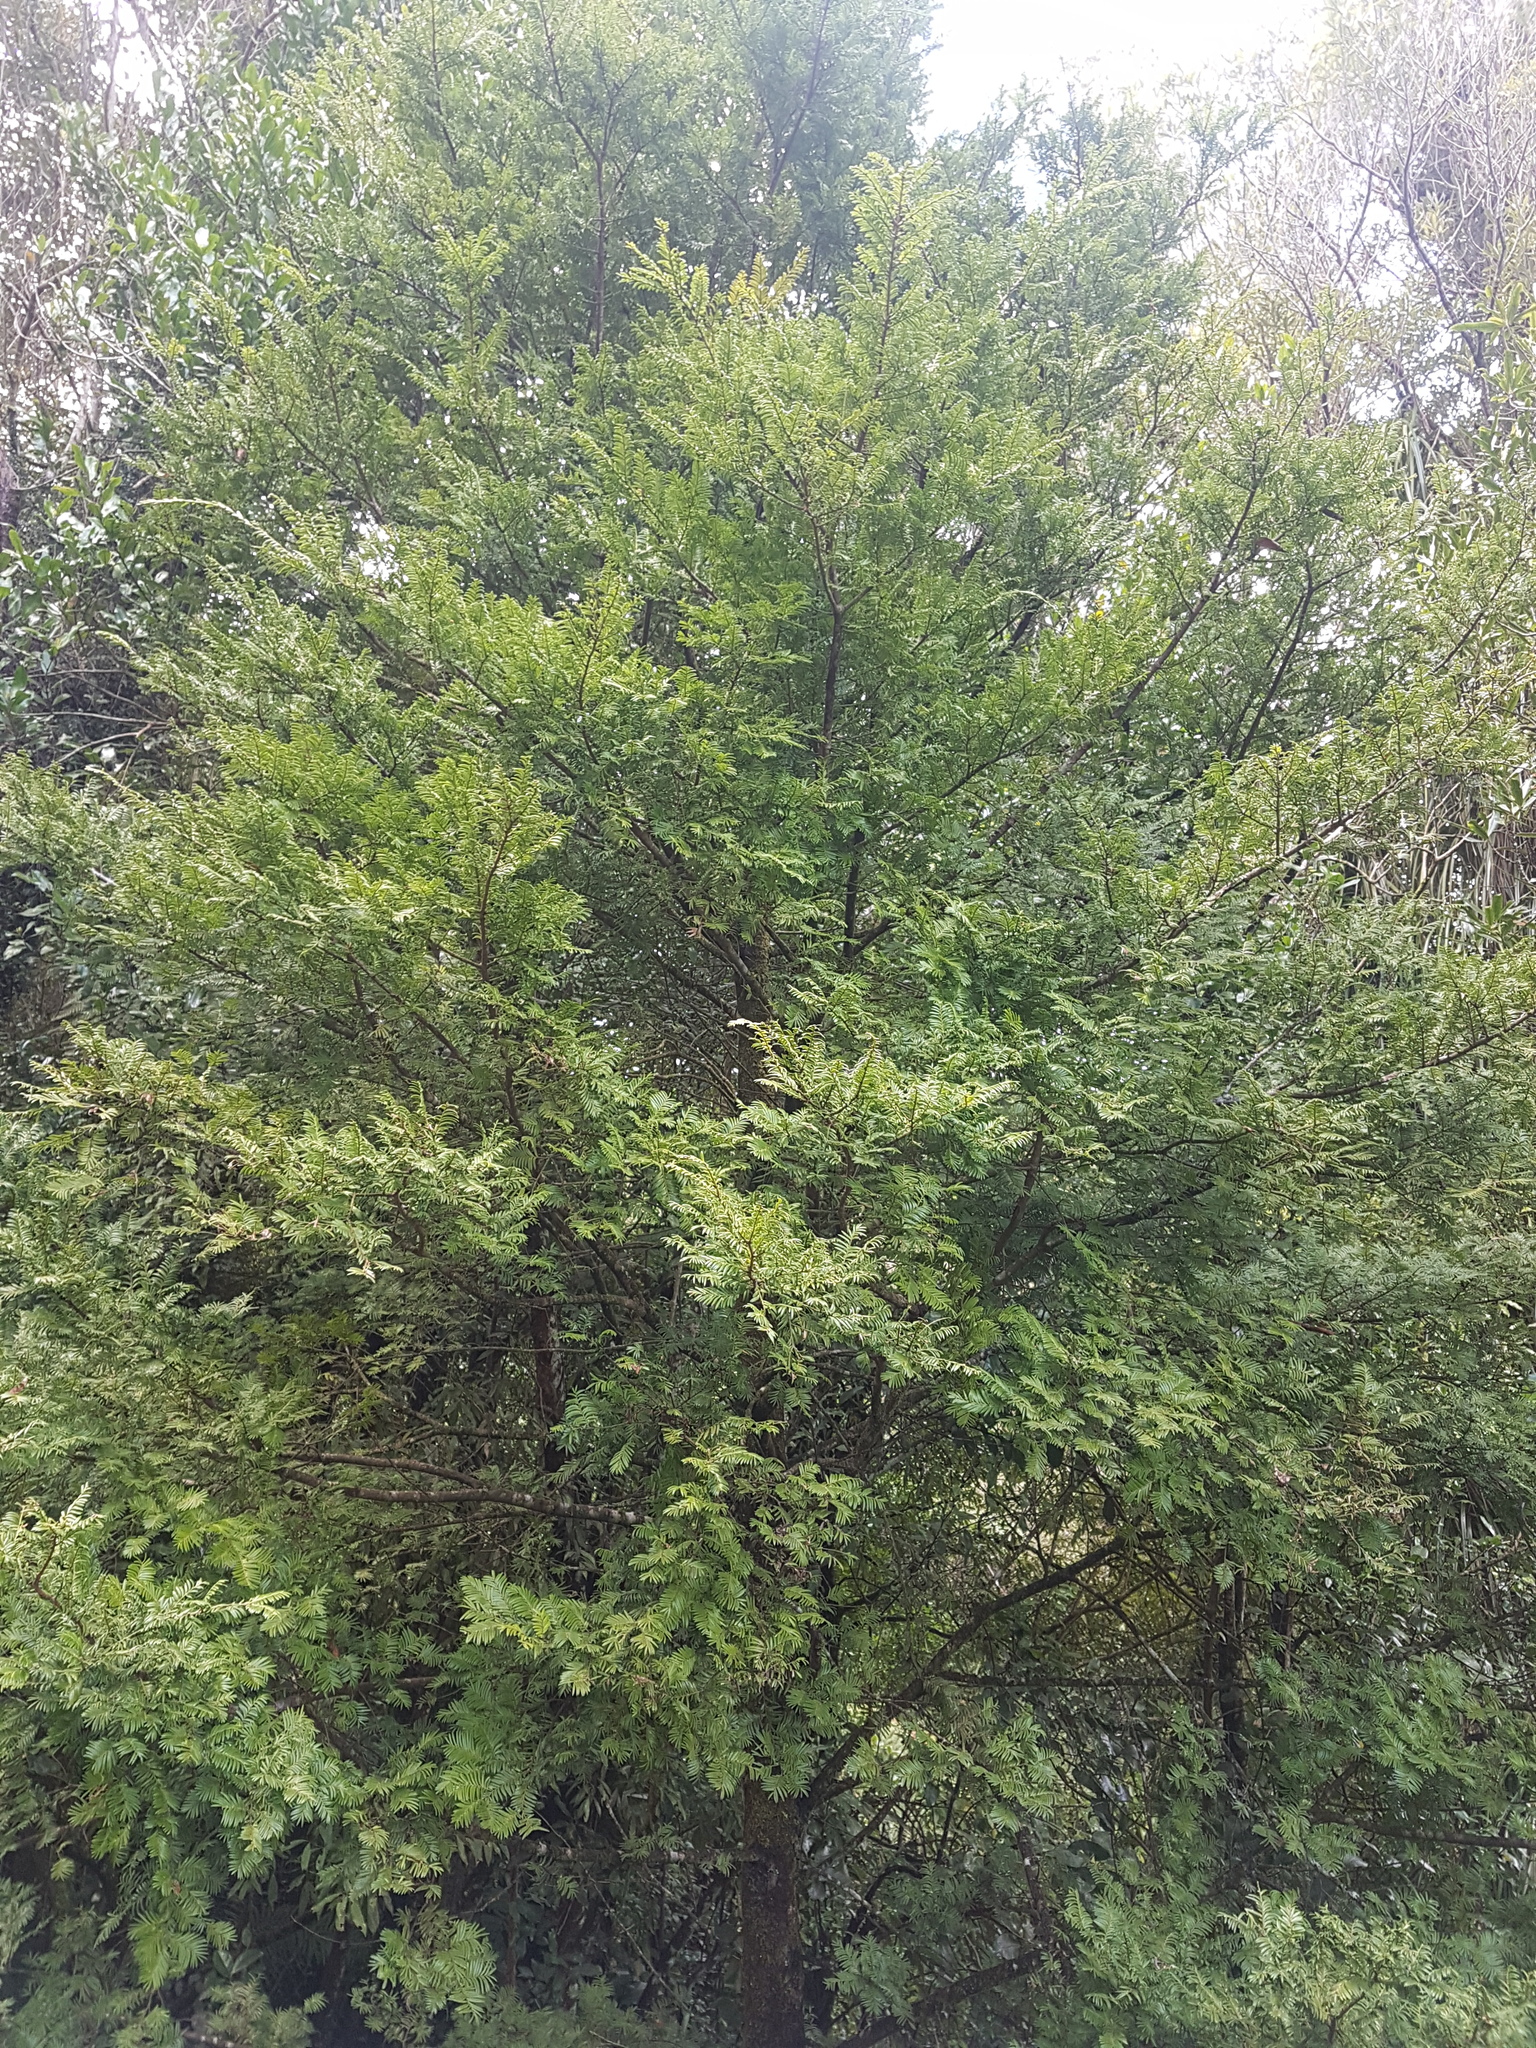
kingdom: Plantae
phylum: Tracheophyta
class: Pinopsida
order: Pinales
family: Podocarpaceae
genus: Prumnopitys
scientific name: Prumnopitys ferruginea
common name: Brown pine
